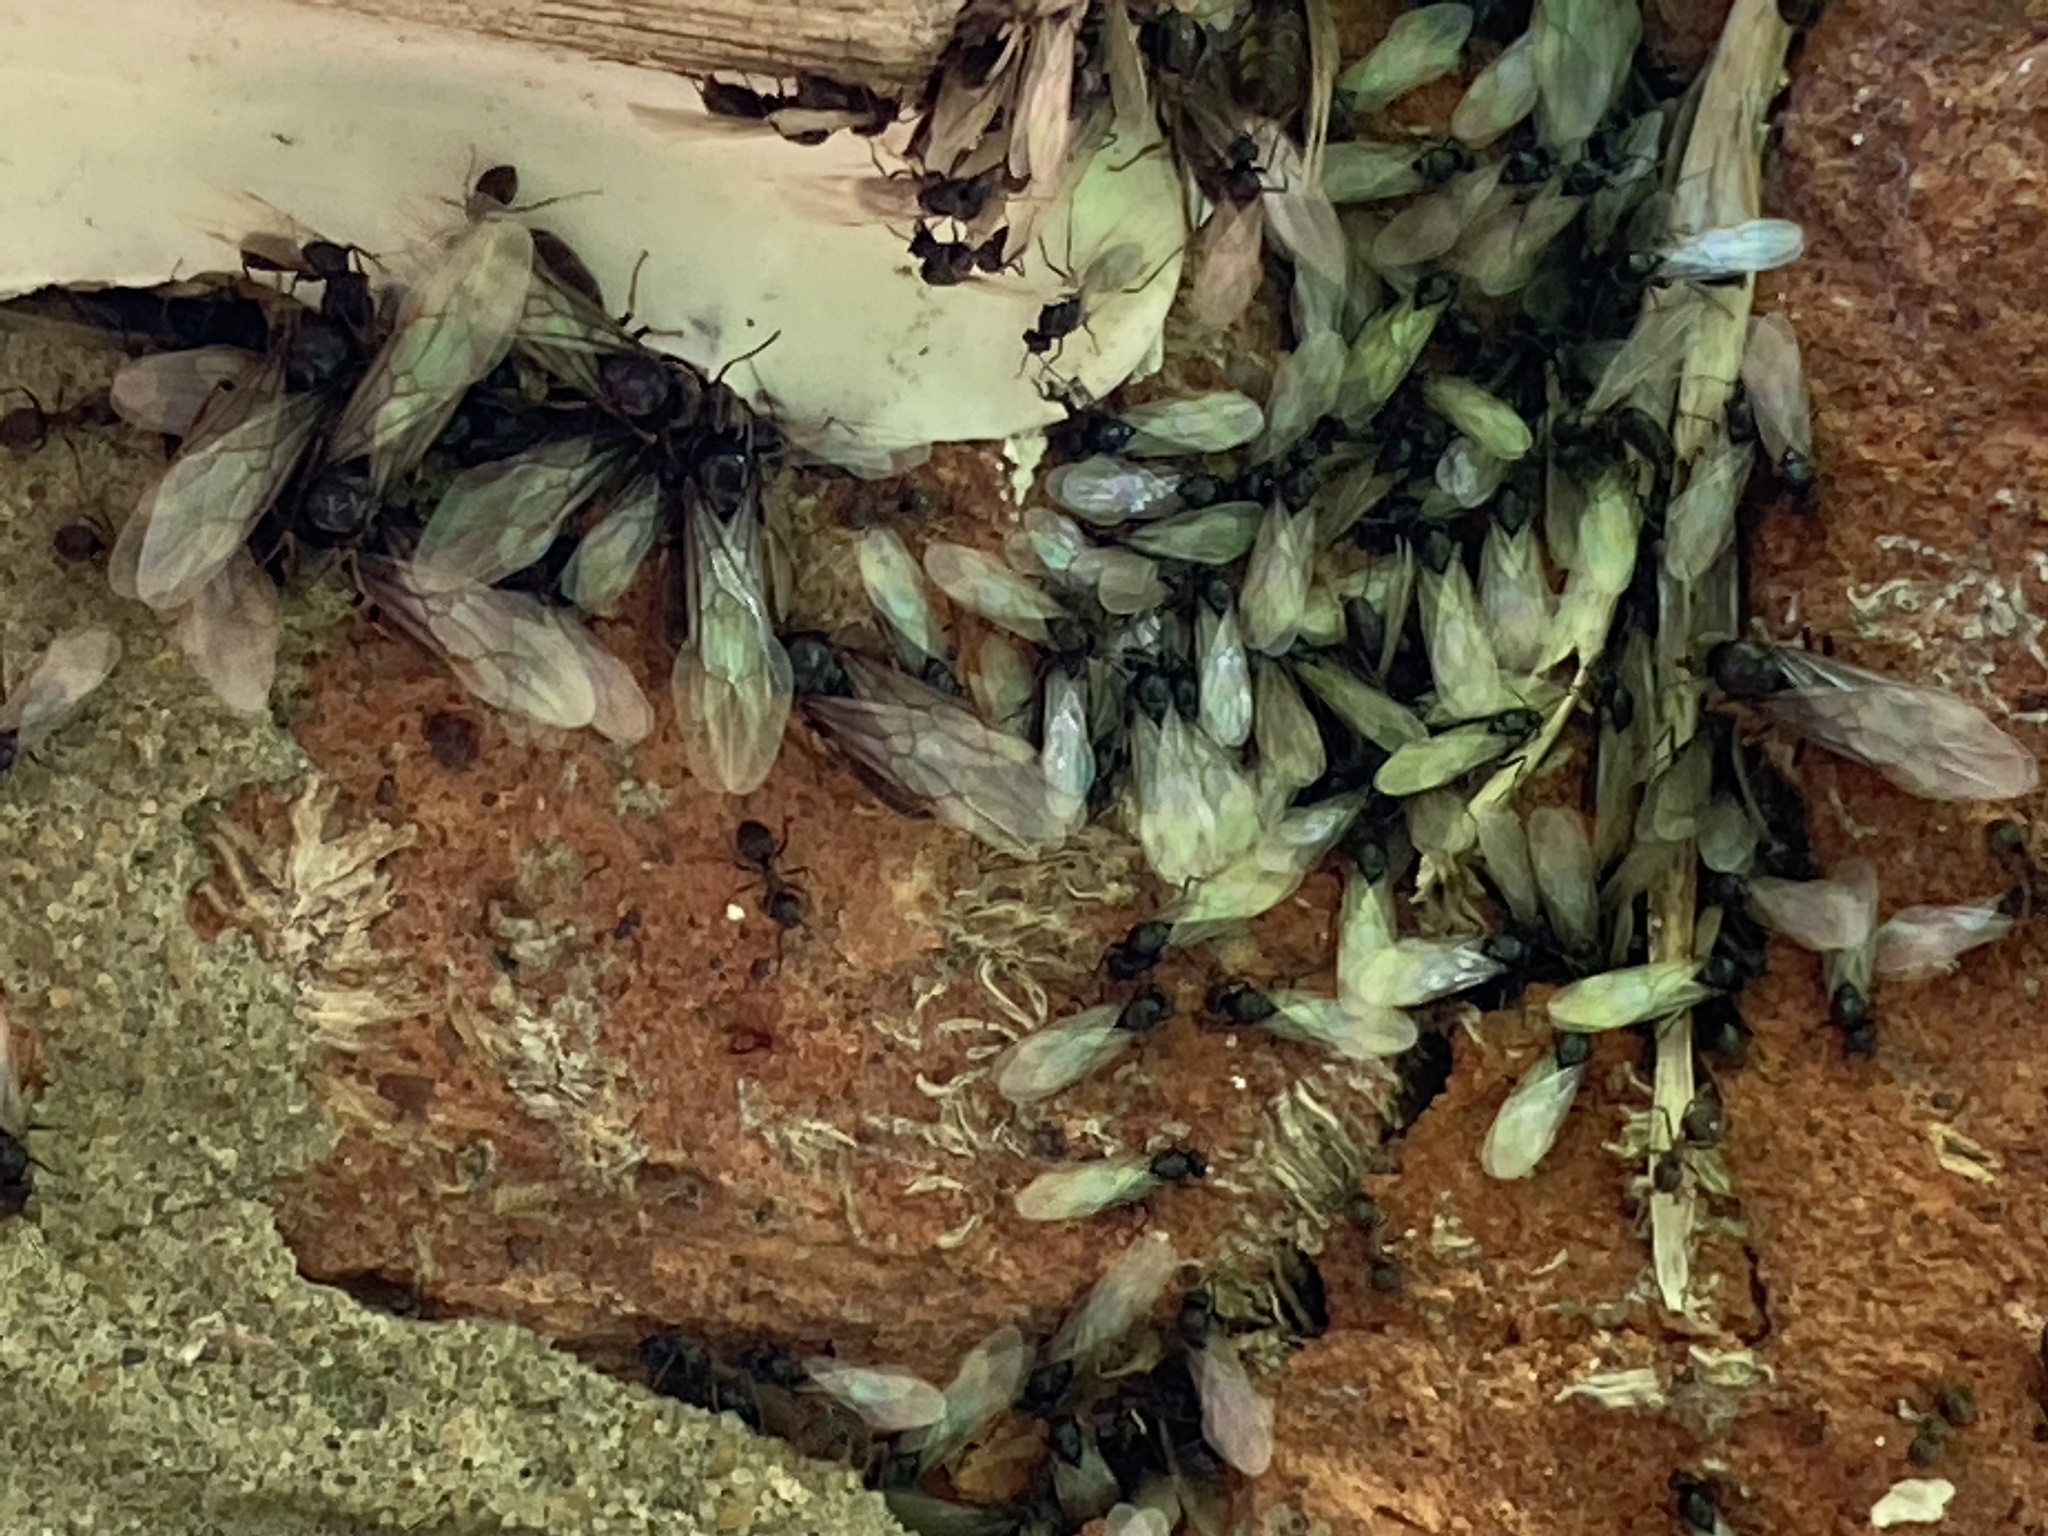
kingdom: Animalia
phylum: Arthropoda
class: Insecta
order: Hymenoptera
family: Formicidae
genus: Lasius
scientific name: Lasius niger
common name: Small black ant
